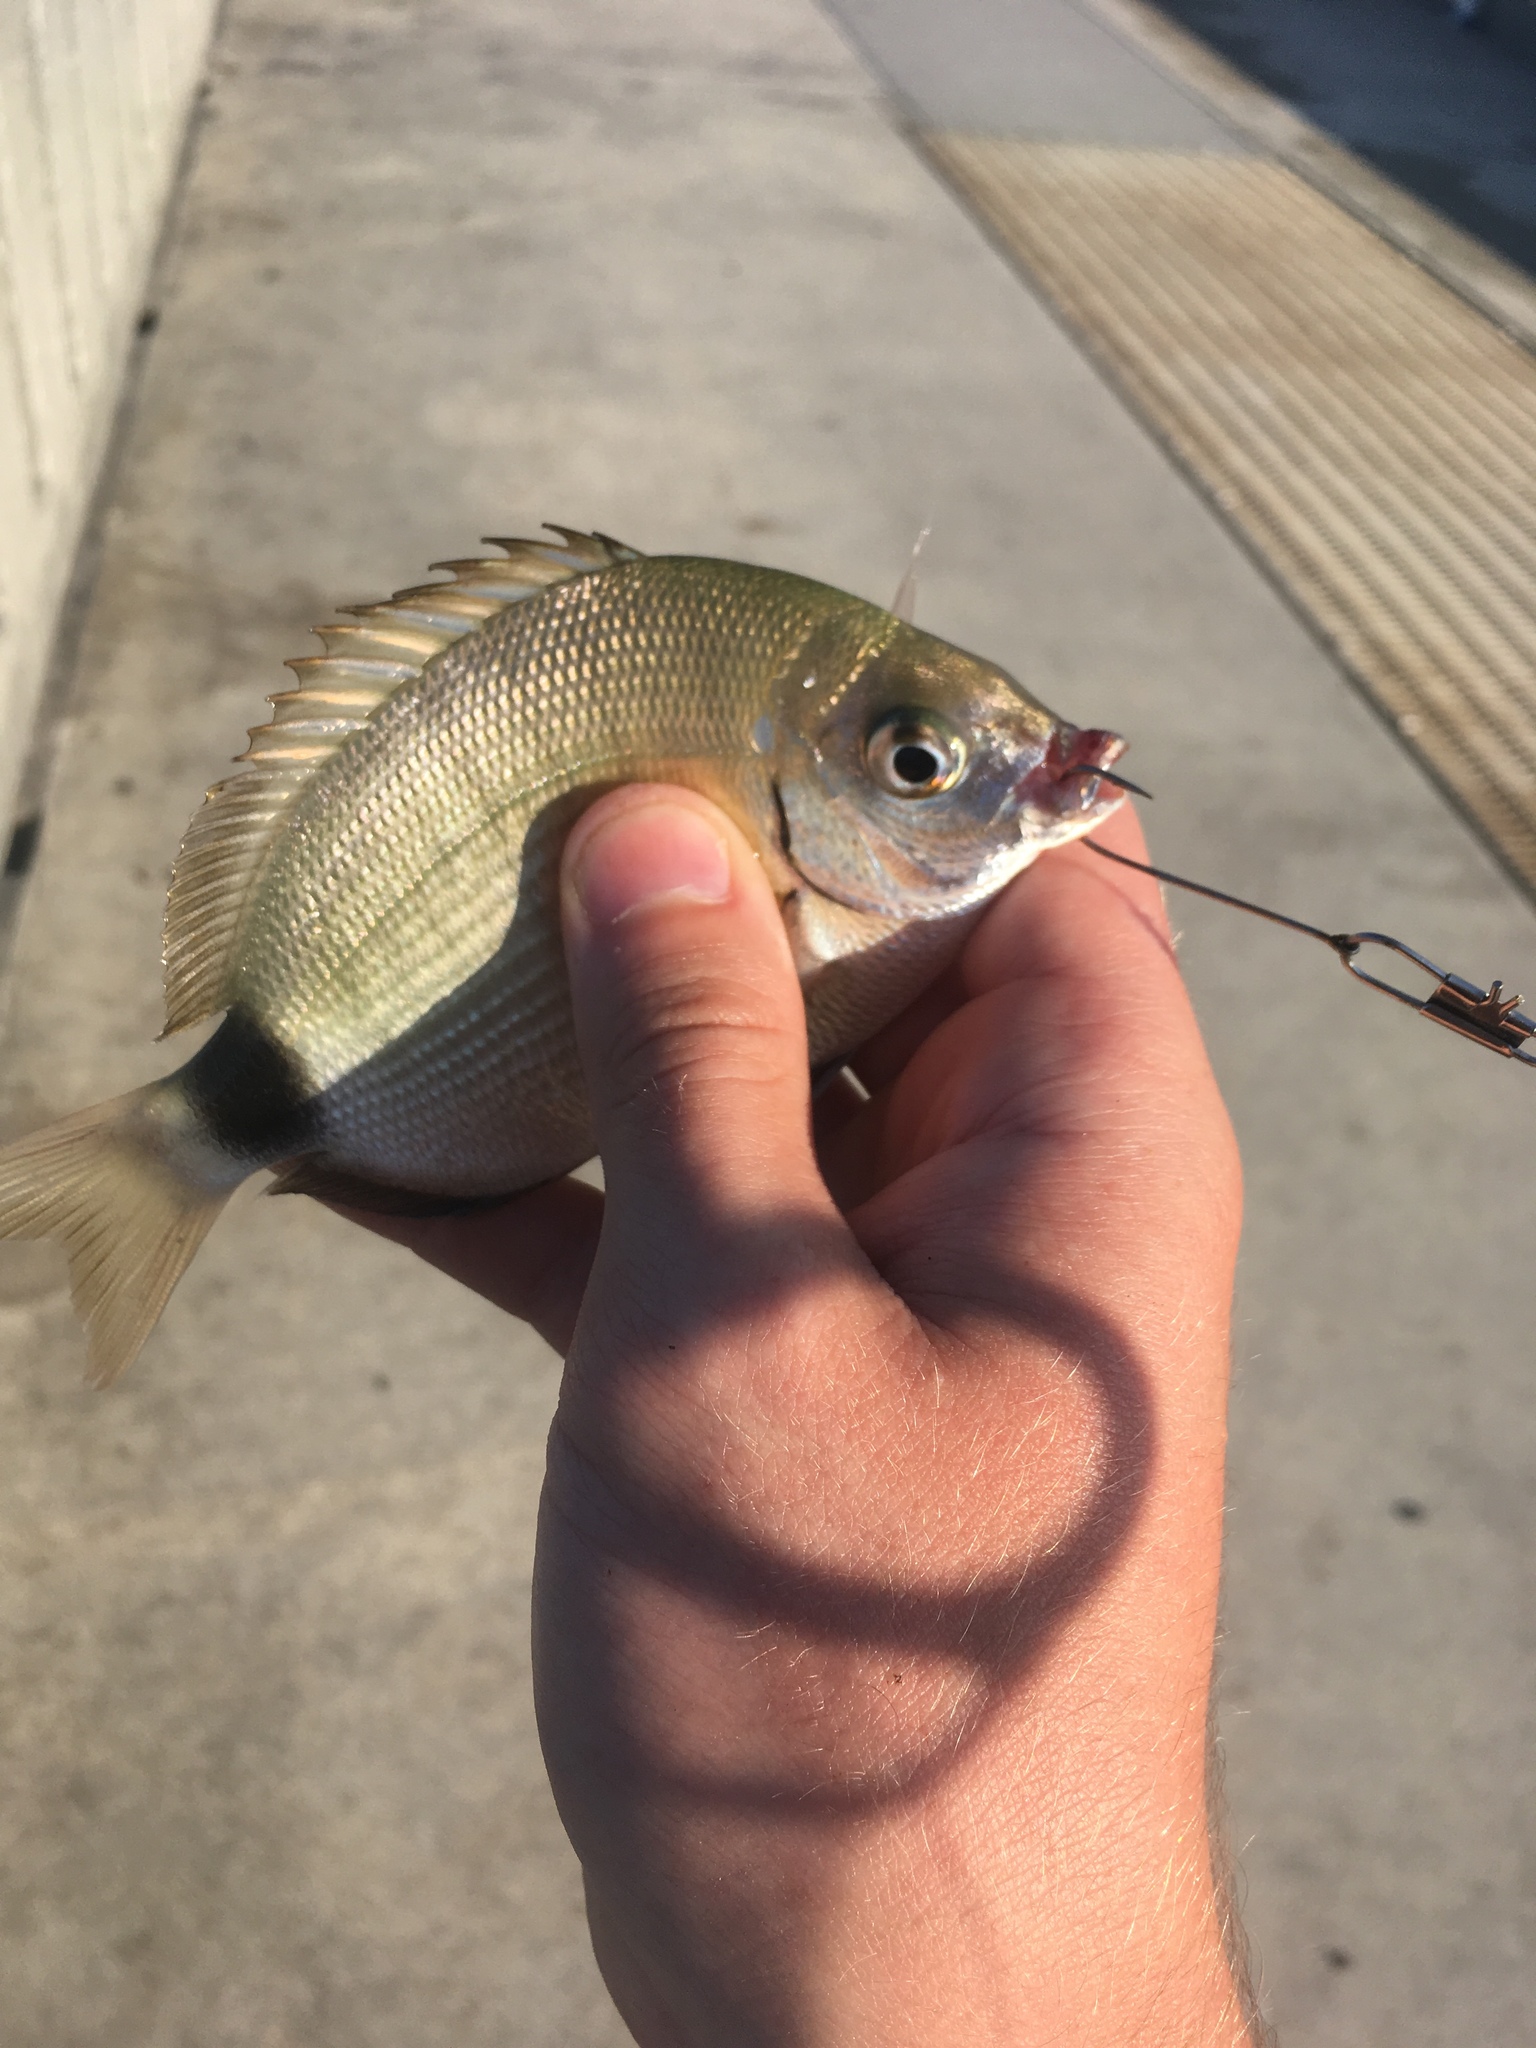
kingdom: Animalia
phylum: Chordata
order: Perciformes
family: Sparidae
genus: Diplodus
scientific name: Diplodus holbrookii
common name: Porgy
